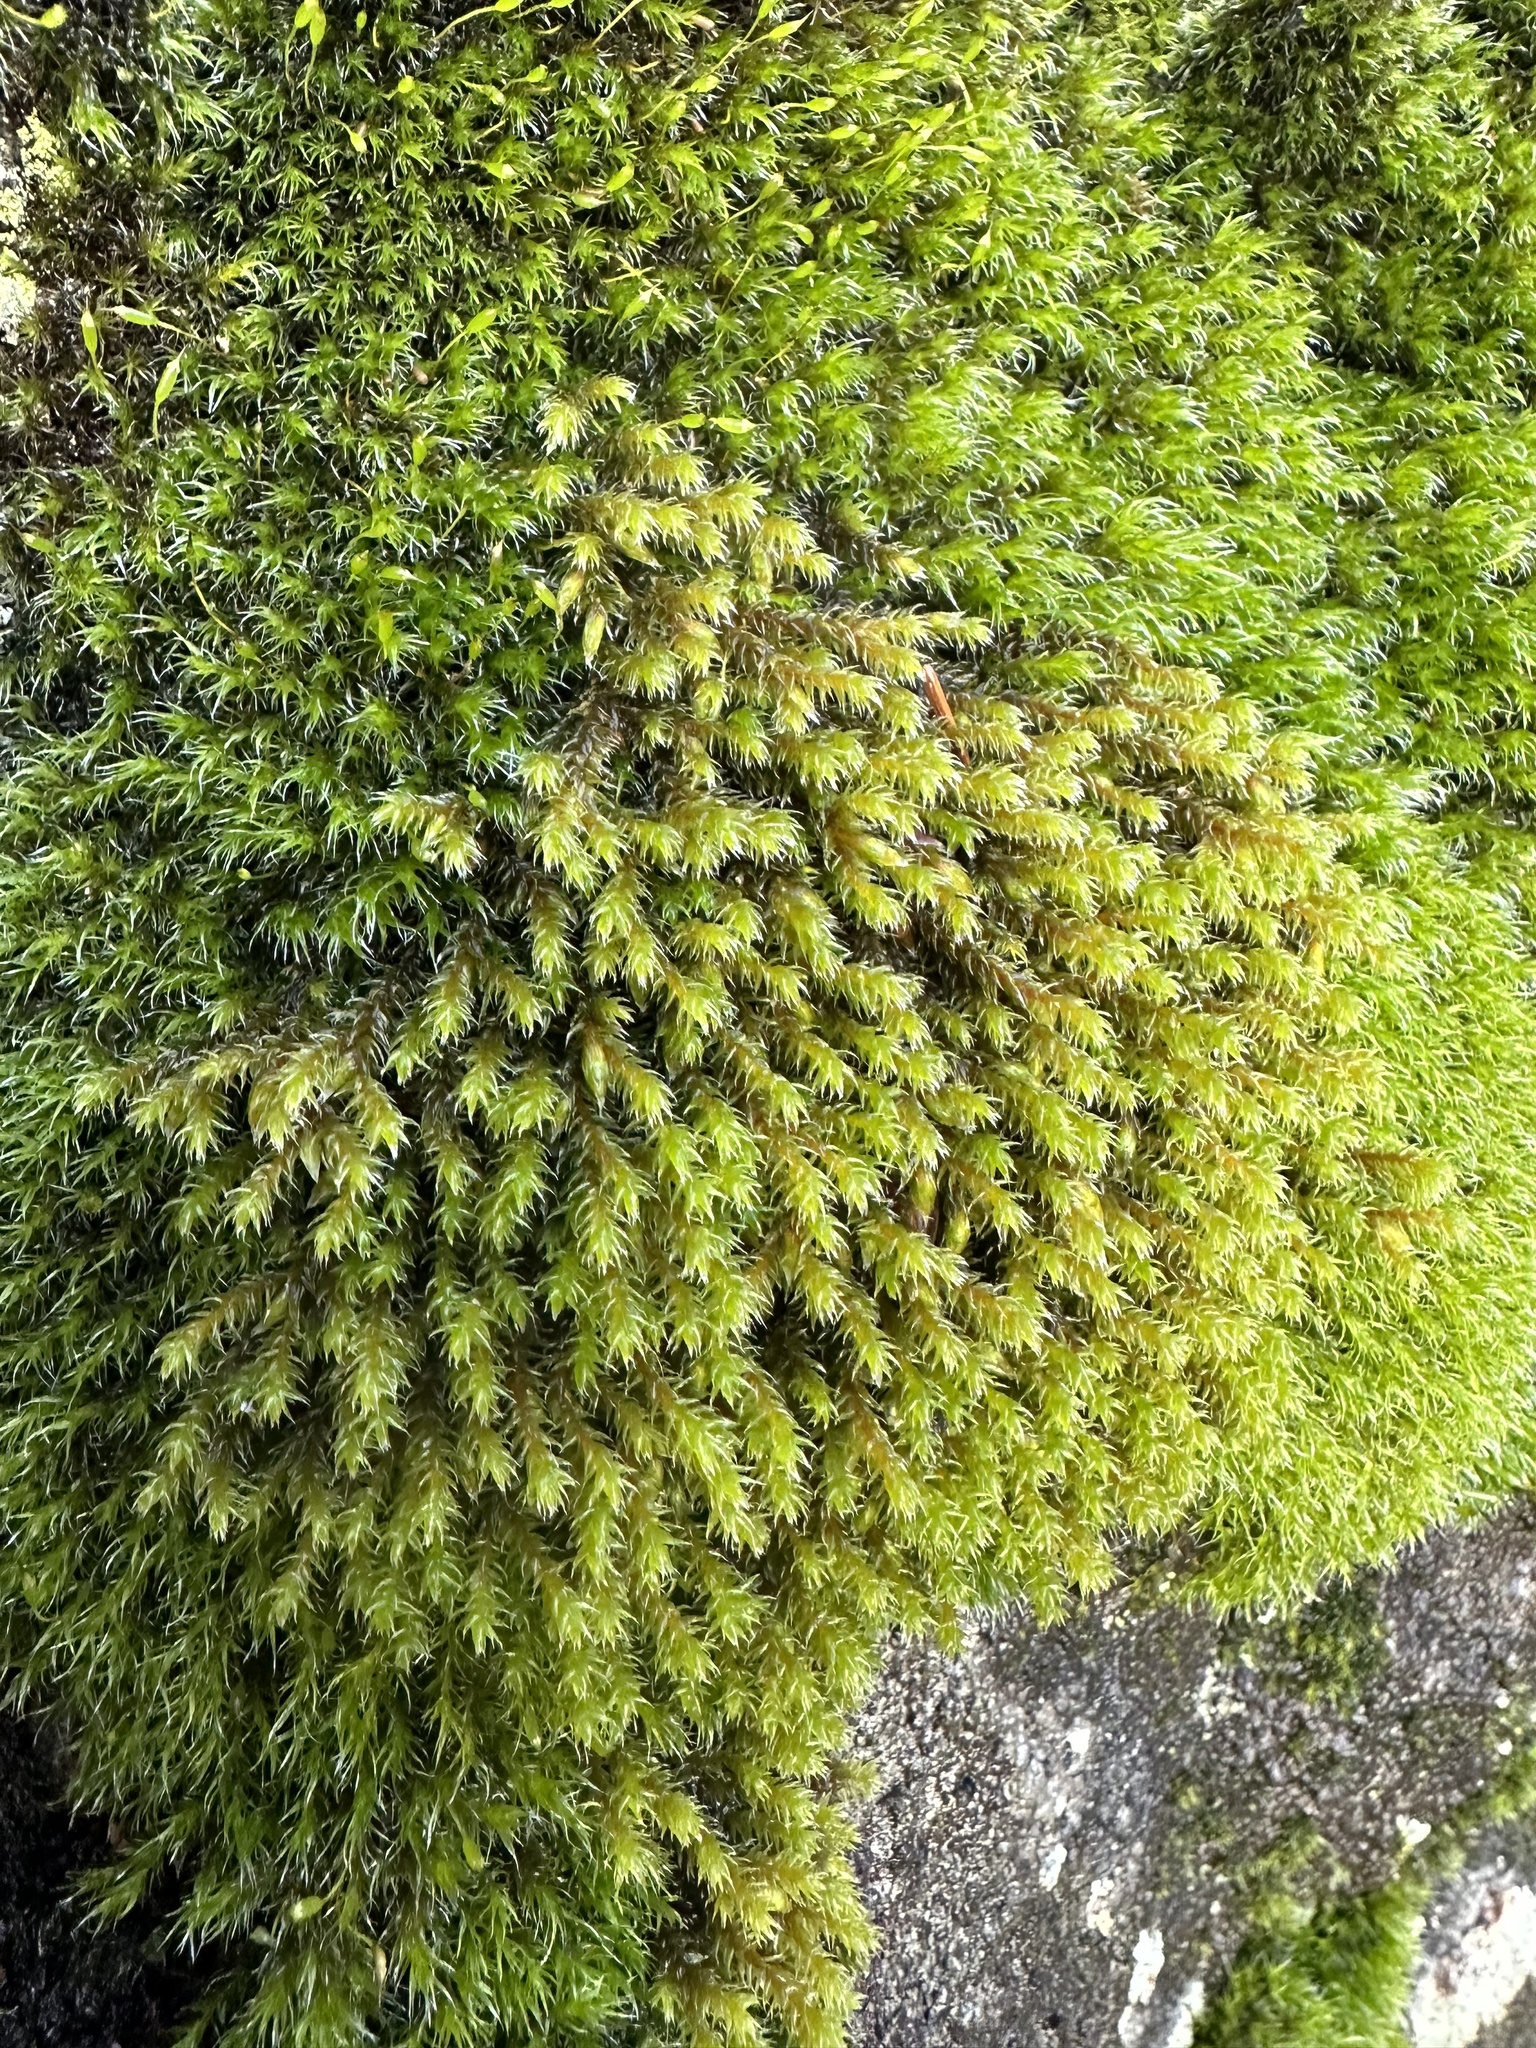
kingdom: Plantae
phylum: Bryophyta
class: Bryopsida
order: Hedwigiales
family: Hedwigiaceae
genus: Hedwigia
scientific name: Hedwigia ciliata
